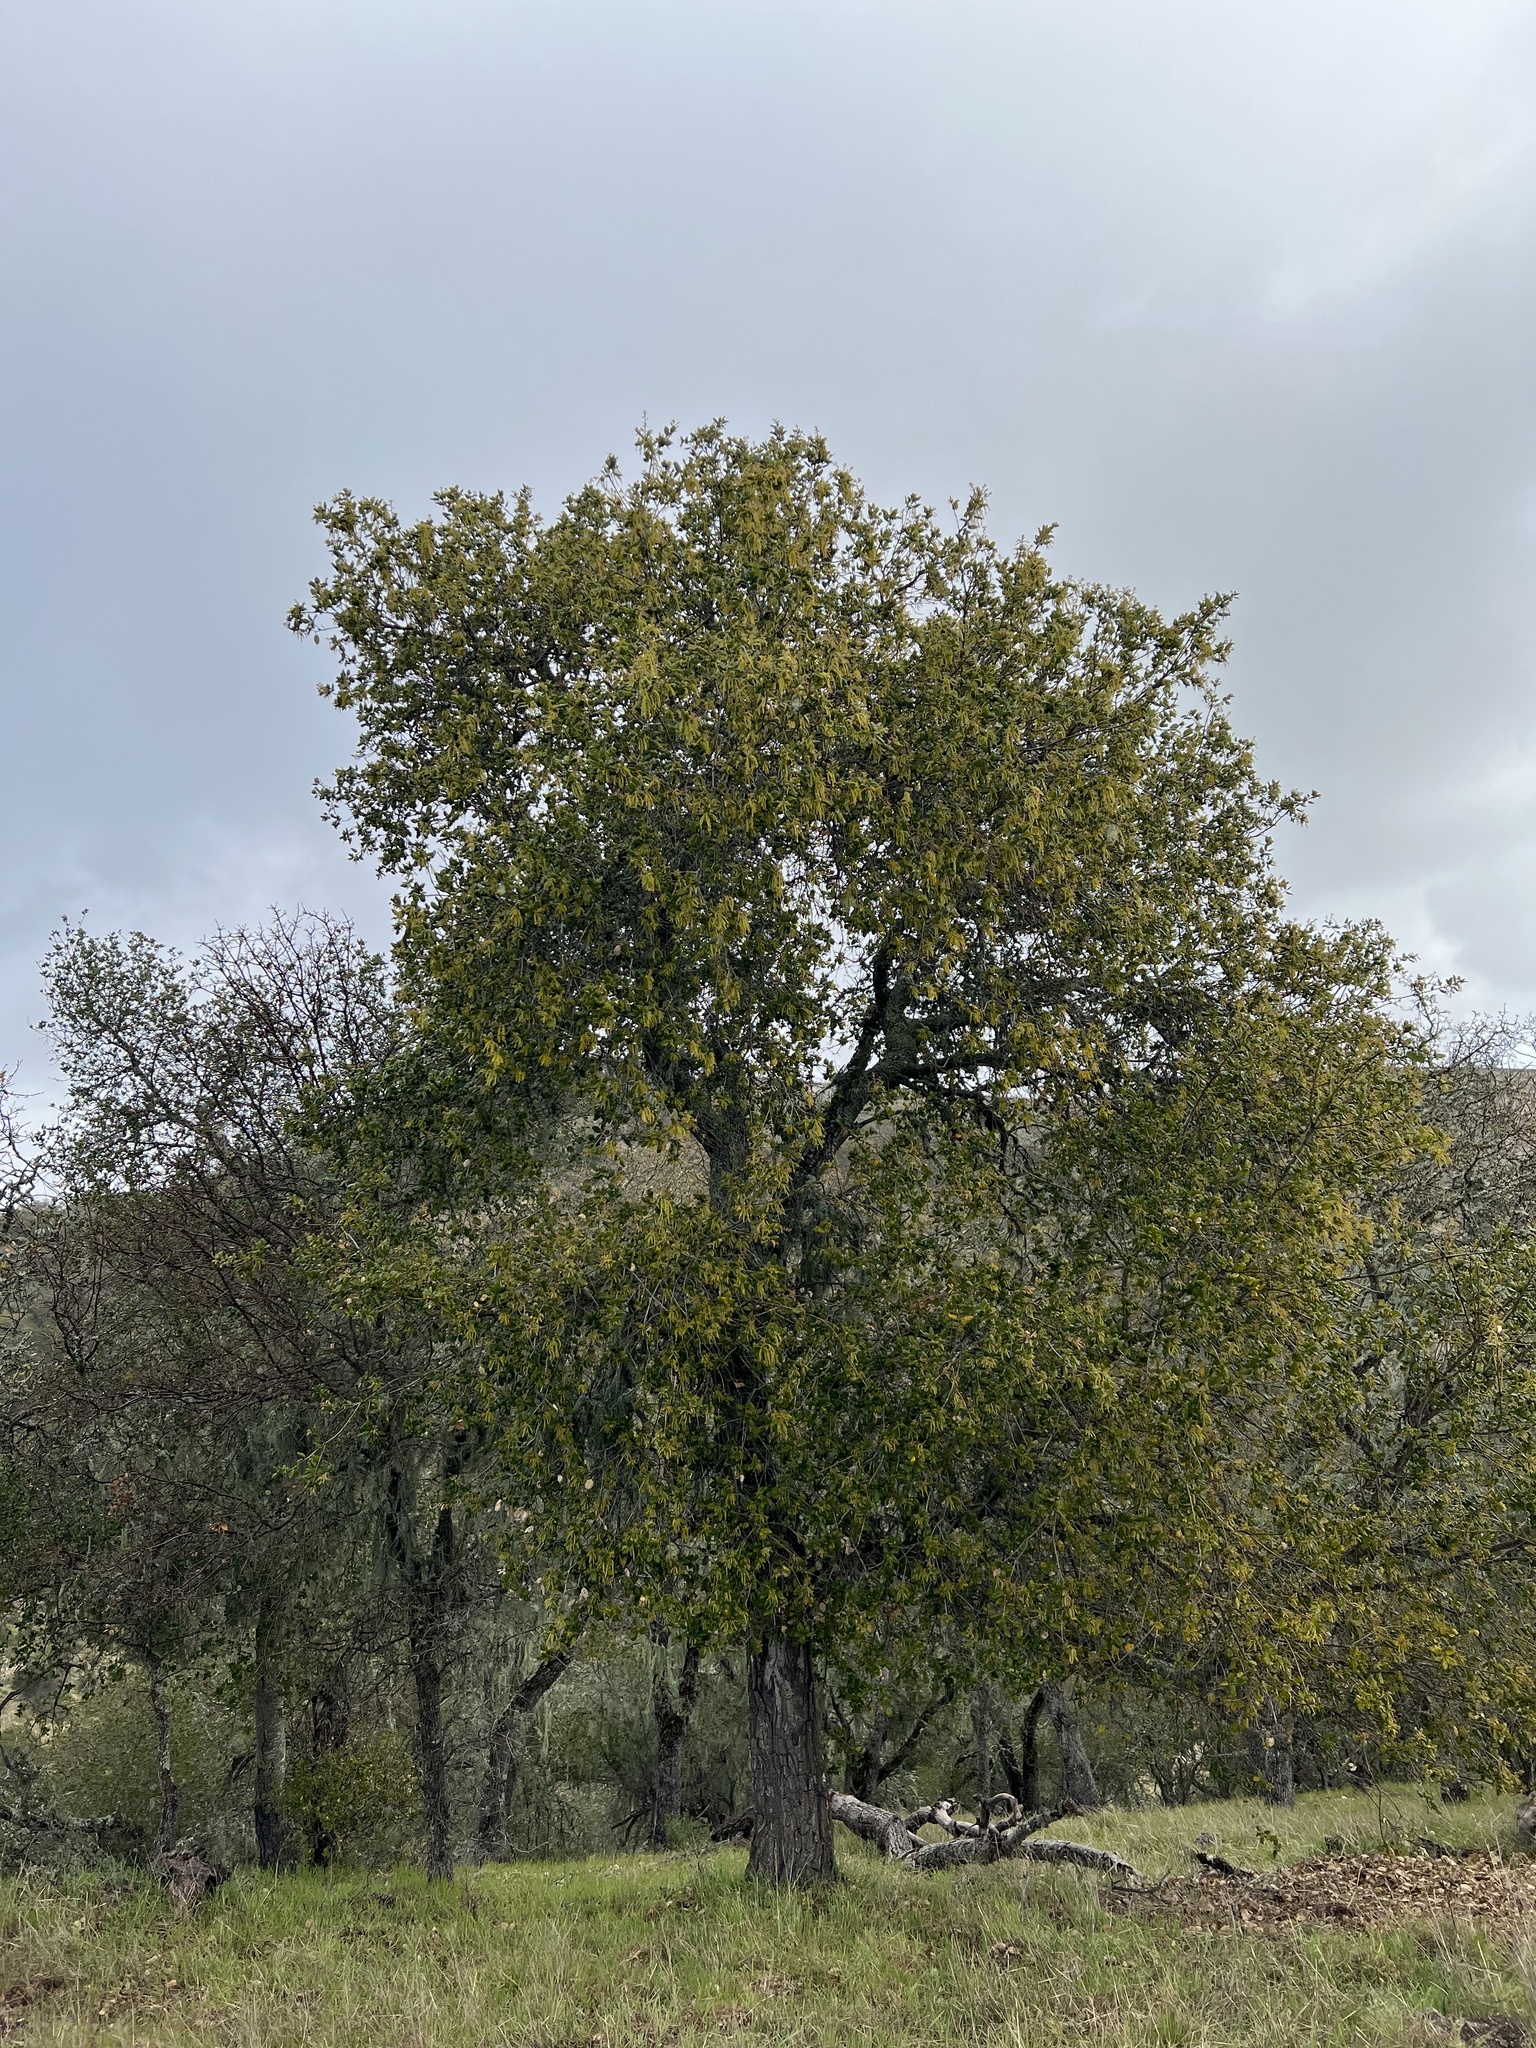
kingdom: Plantae
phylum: Tracheophyta
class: Magnoliopsida
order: Fagales
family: Fagaceae
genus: Quercus
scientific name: Quercus agrifolia
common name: California live oak
